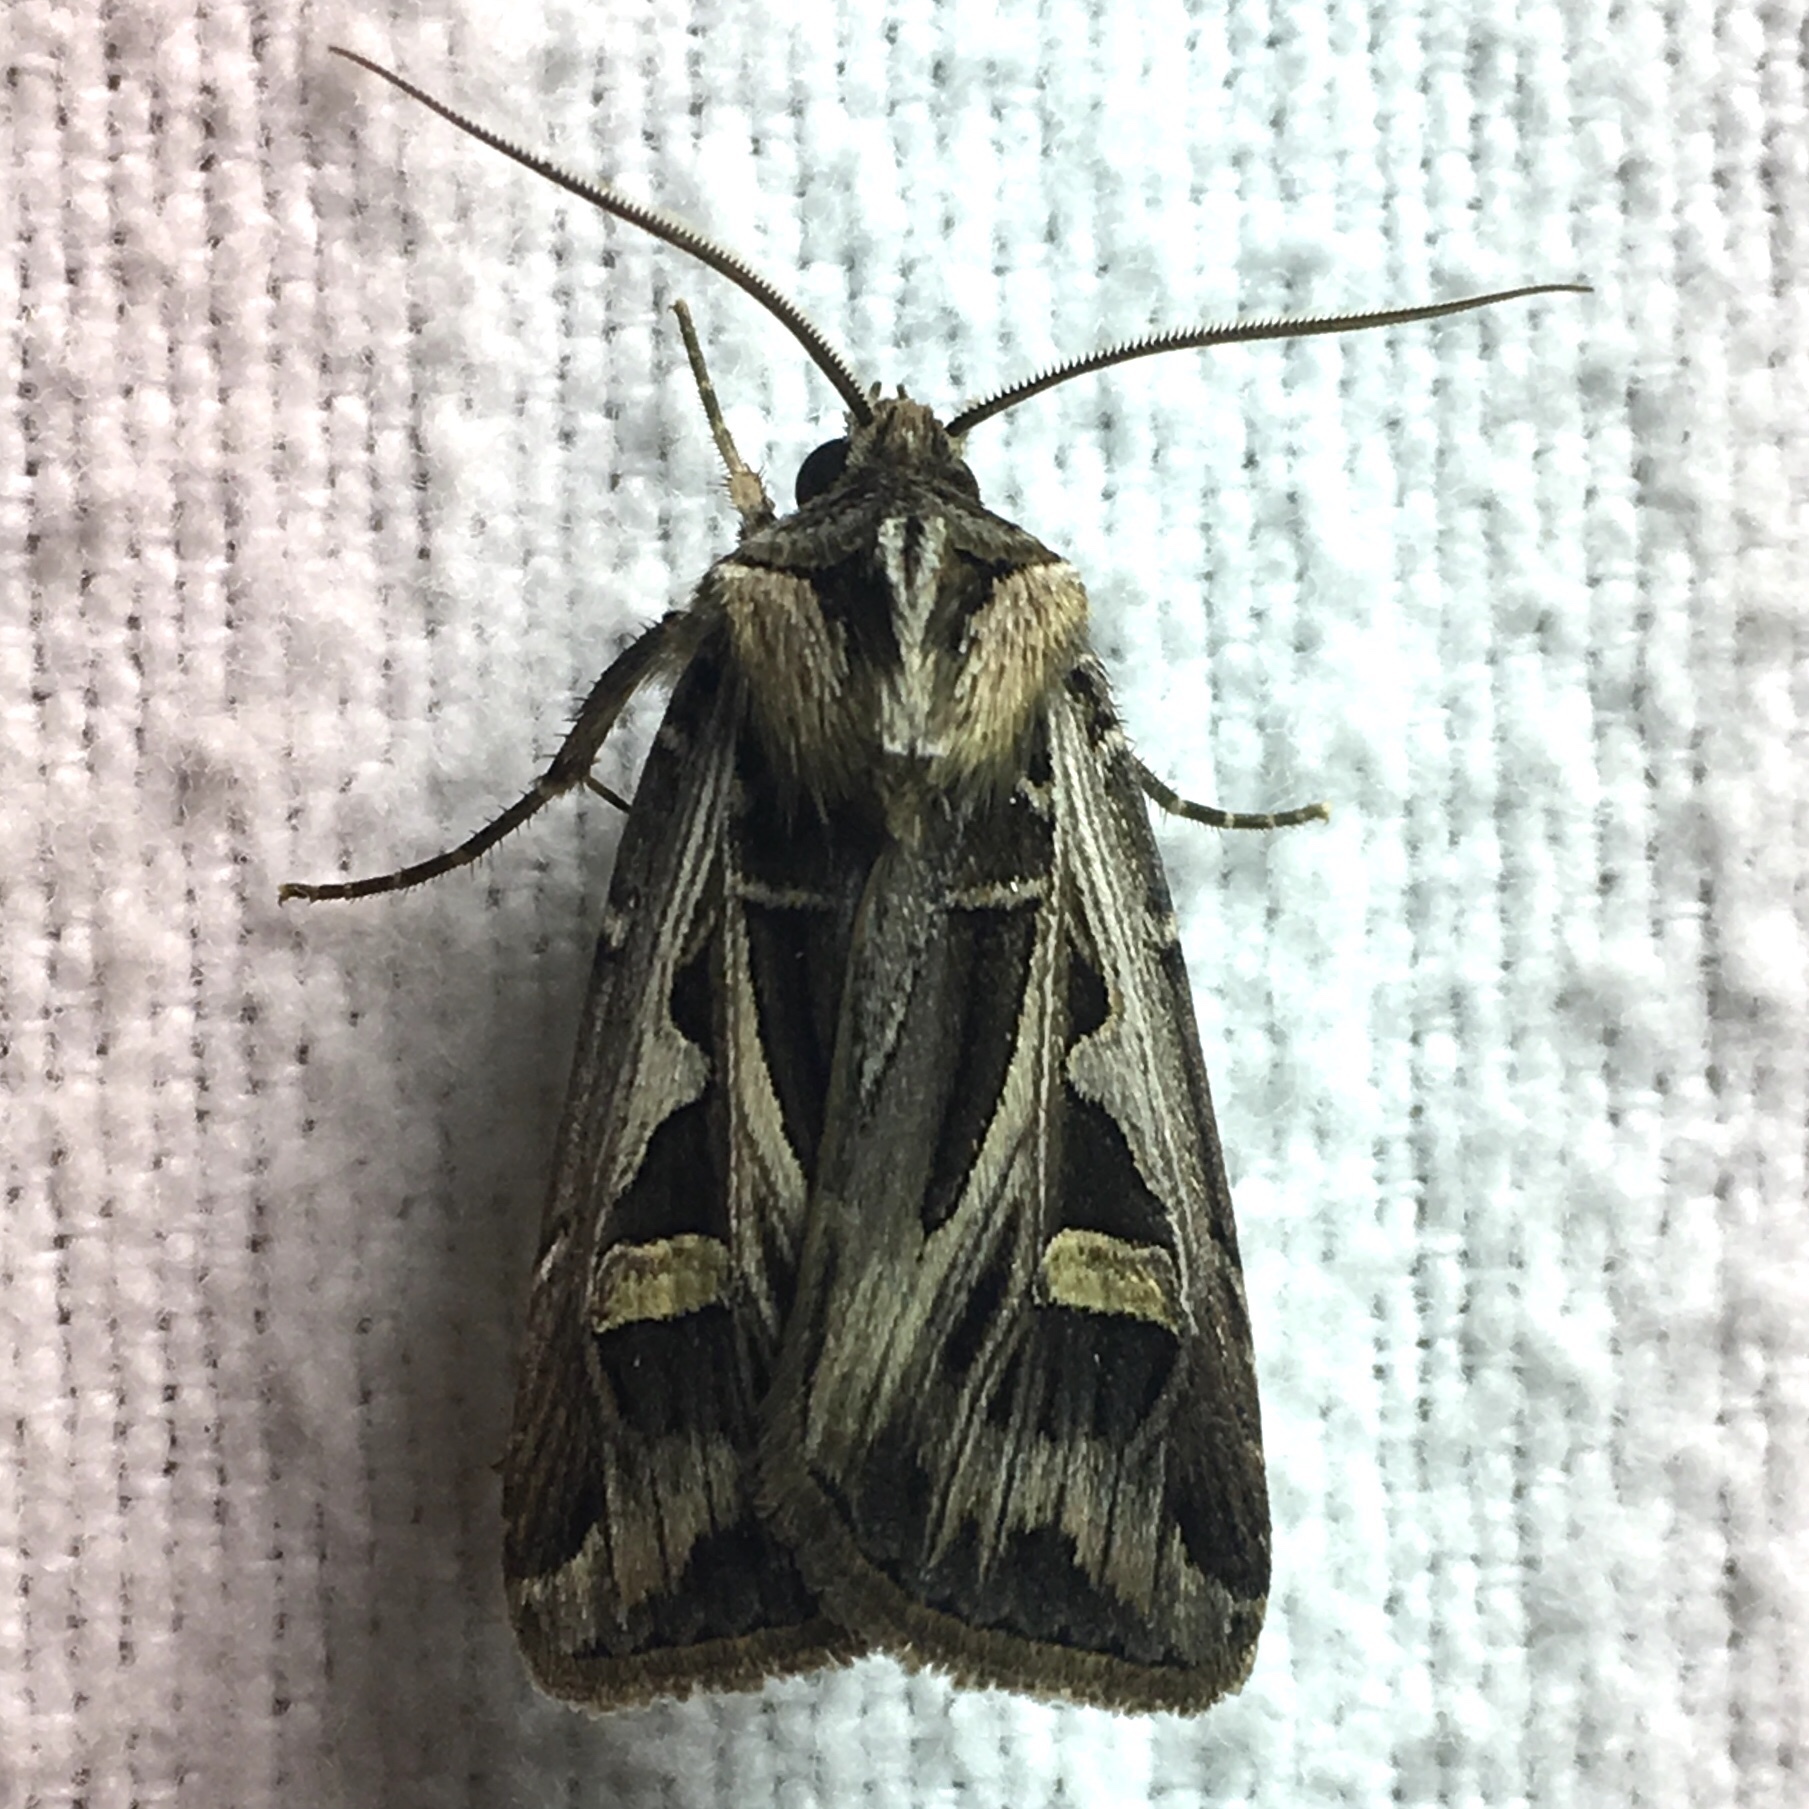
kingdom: Animalia
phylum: Arthropoda
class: Insecta
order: Lepidoptera
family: Noctuidae
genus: Feltia
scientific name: Feltia jaculifera
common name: Dingy cutworm moth
